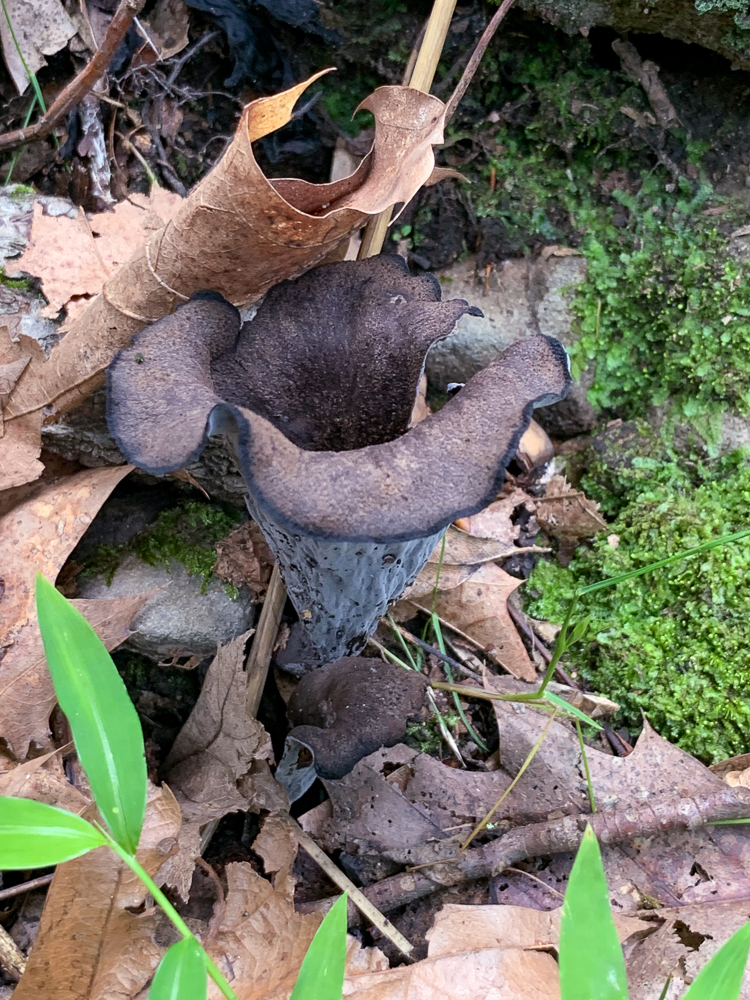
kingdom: Fungi
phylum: Basidiomycota
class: Agaricomycetes
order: Cantharellales
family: Hydnaceae
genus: Craterellus
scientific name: Craterellus cornucopioides
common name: Horn of plenty
